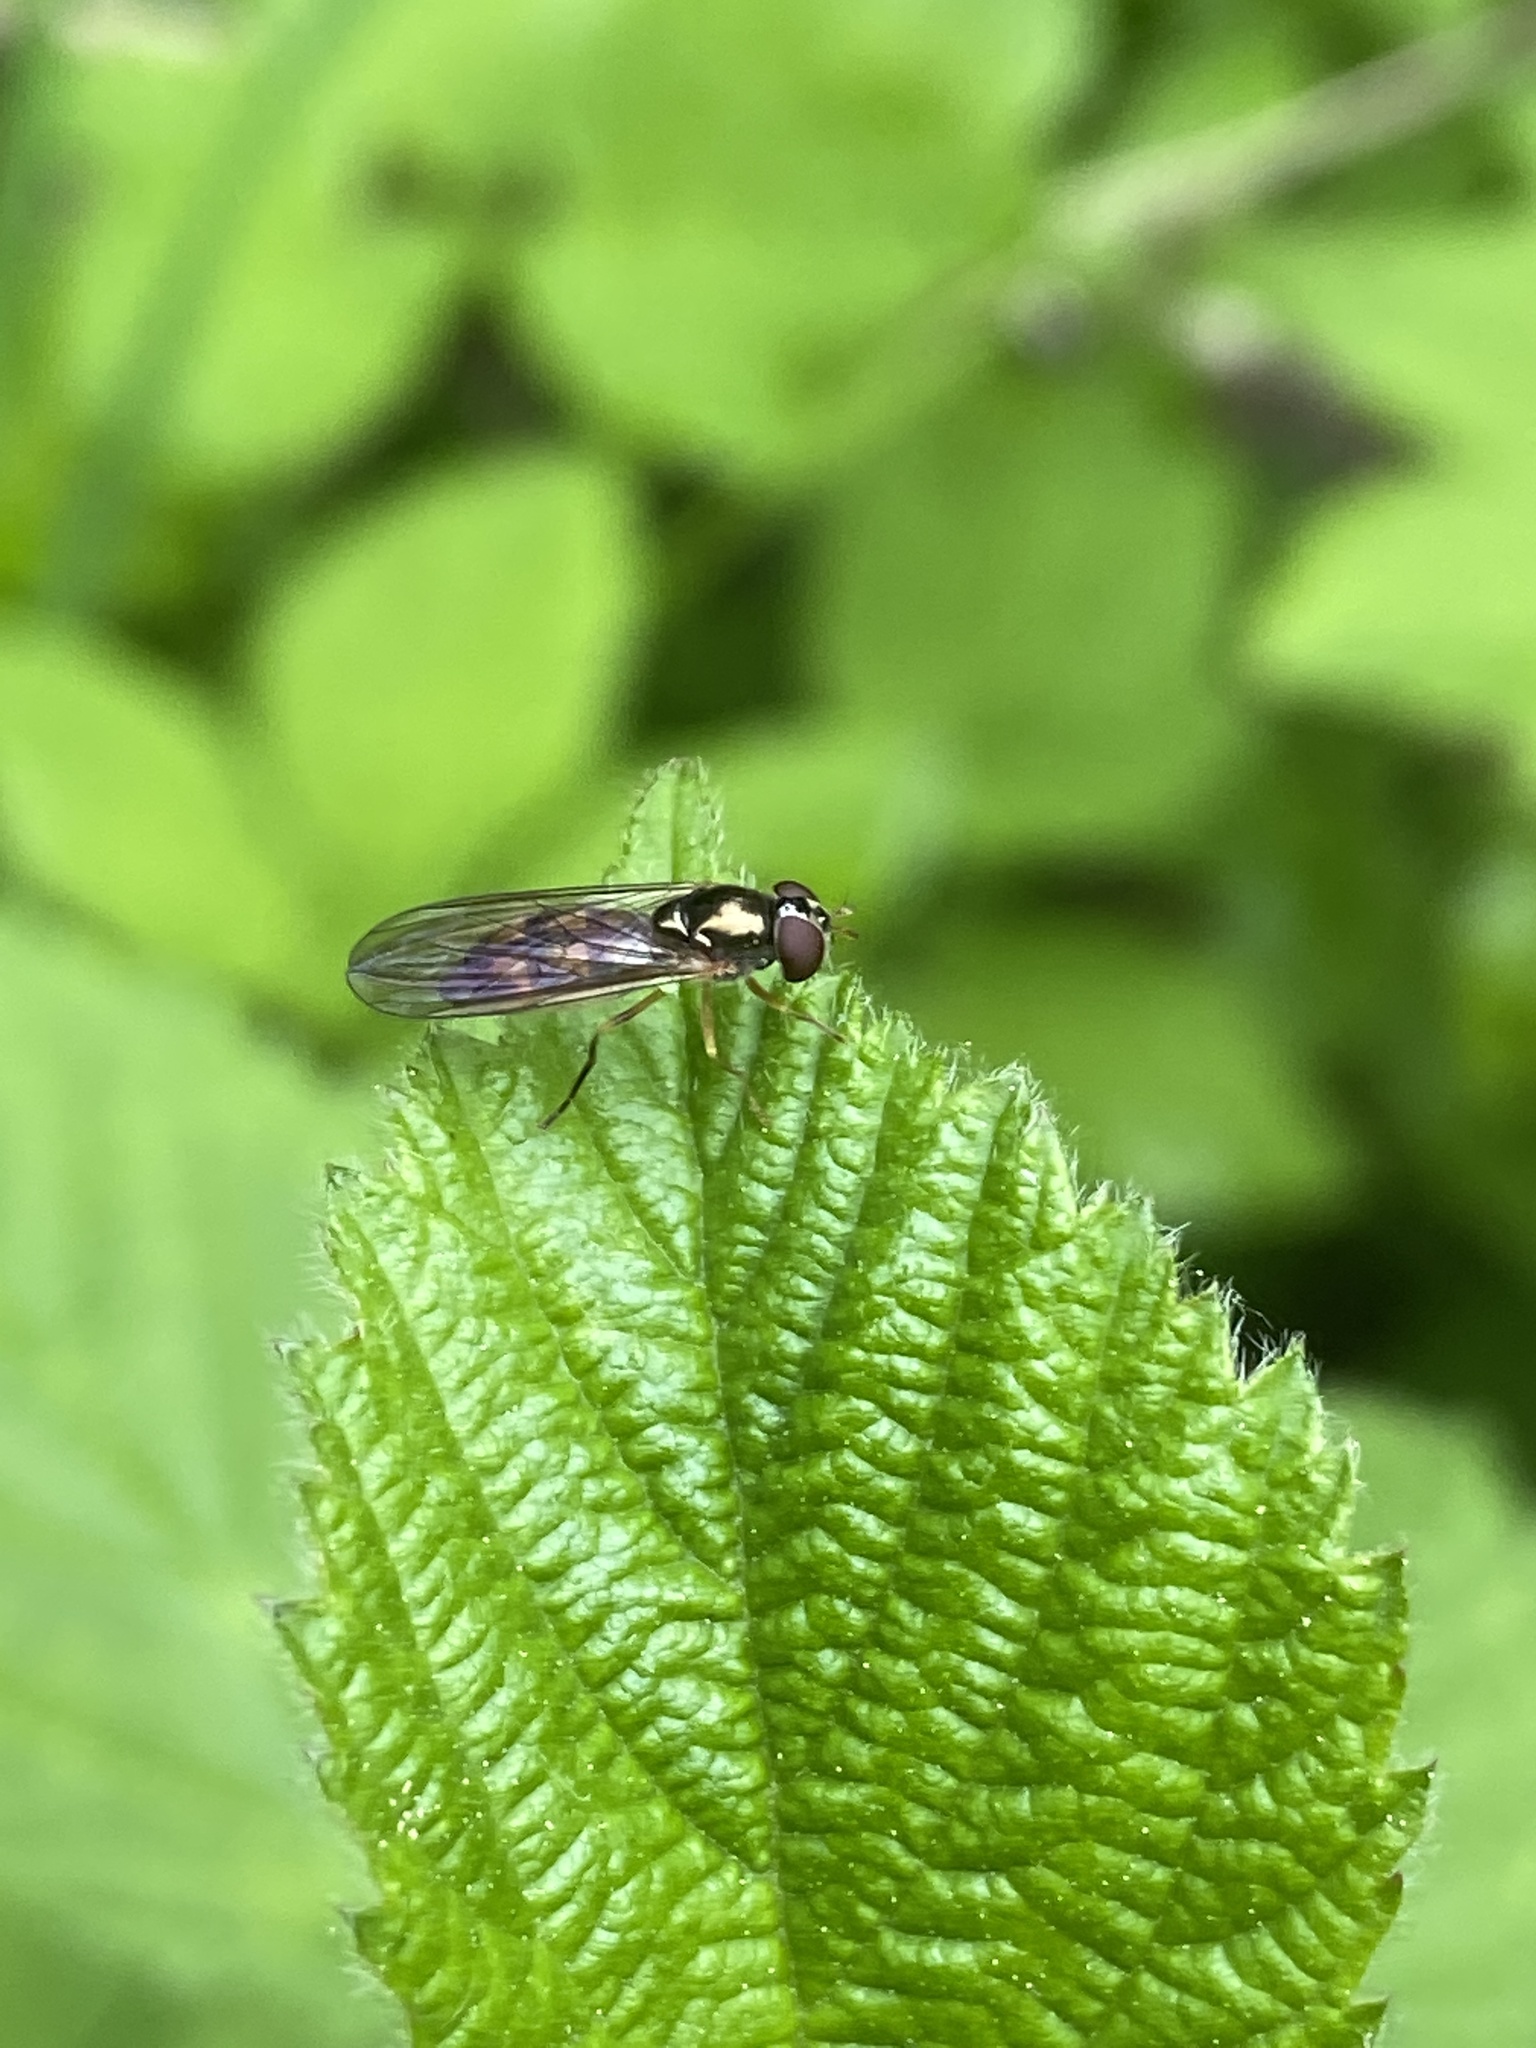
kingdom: Animalia
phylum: Arthropoda
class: Insecta
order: Diptera
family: Syrphidae
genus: Melanostoma
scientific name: Melanostoma scalare
